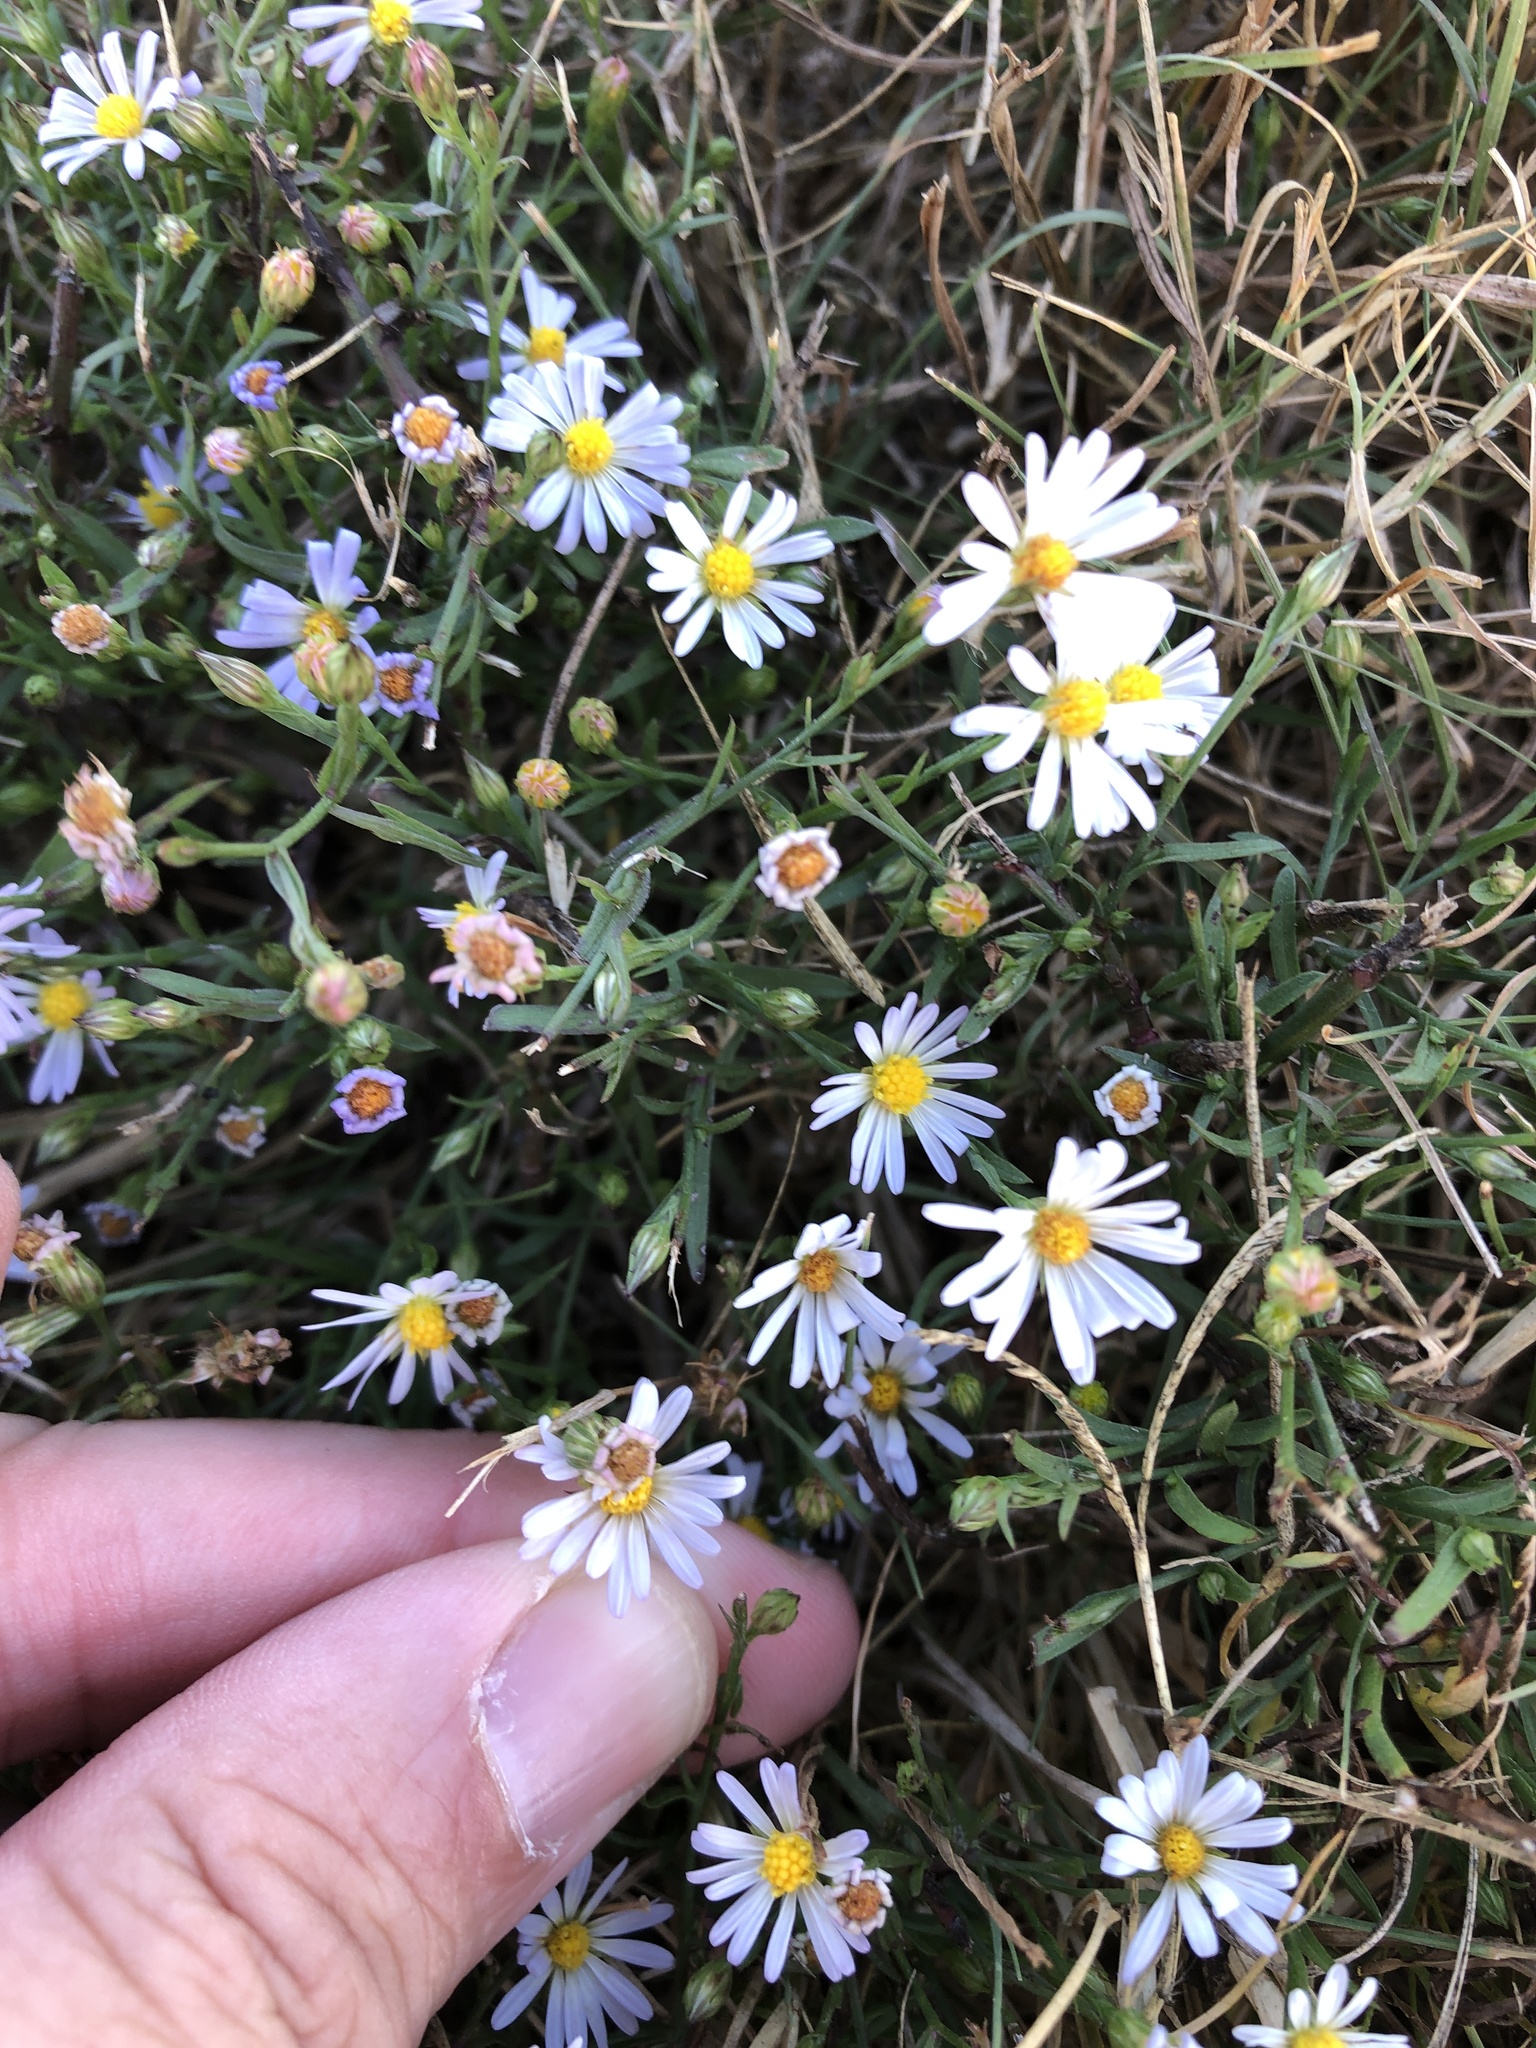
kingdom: Plantae
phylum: Tracheophyta
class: Magnoliopsida
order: Asterales
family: Asteraceae
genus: Symphyotrichum
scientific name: Symphyotrichum divaricatum
